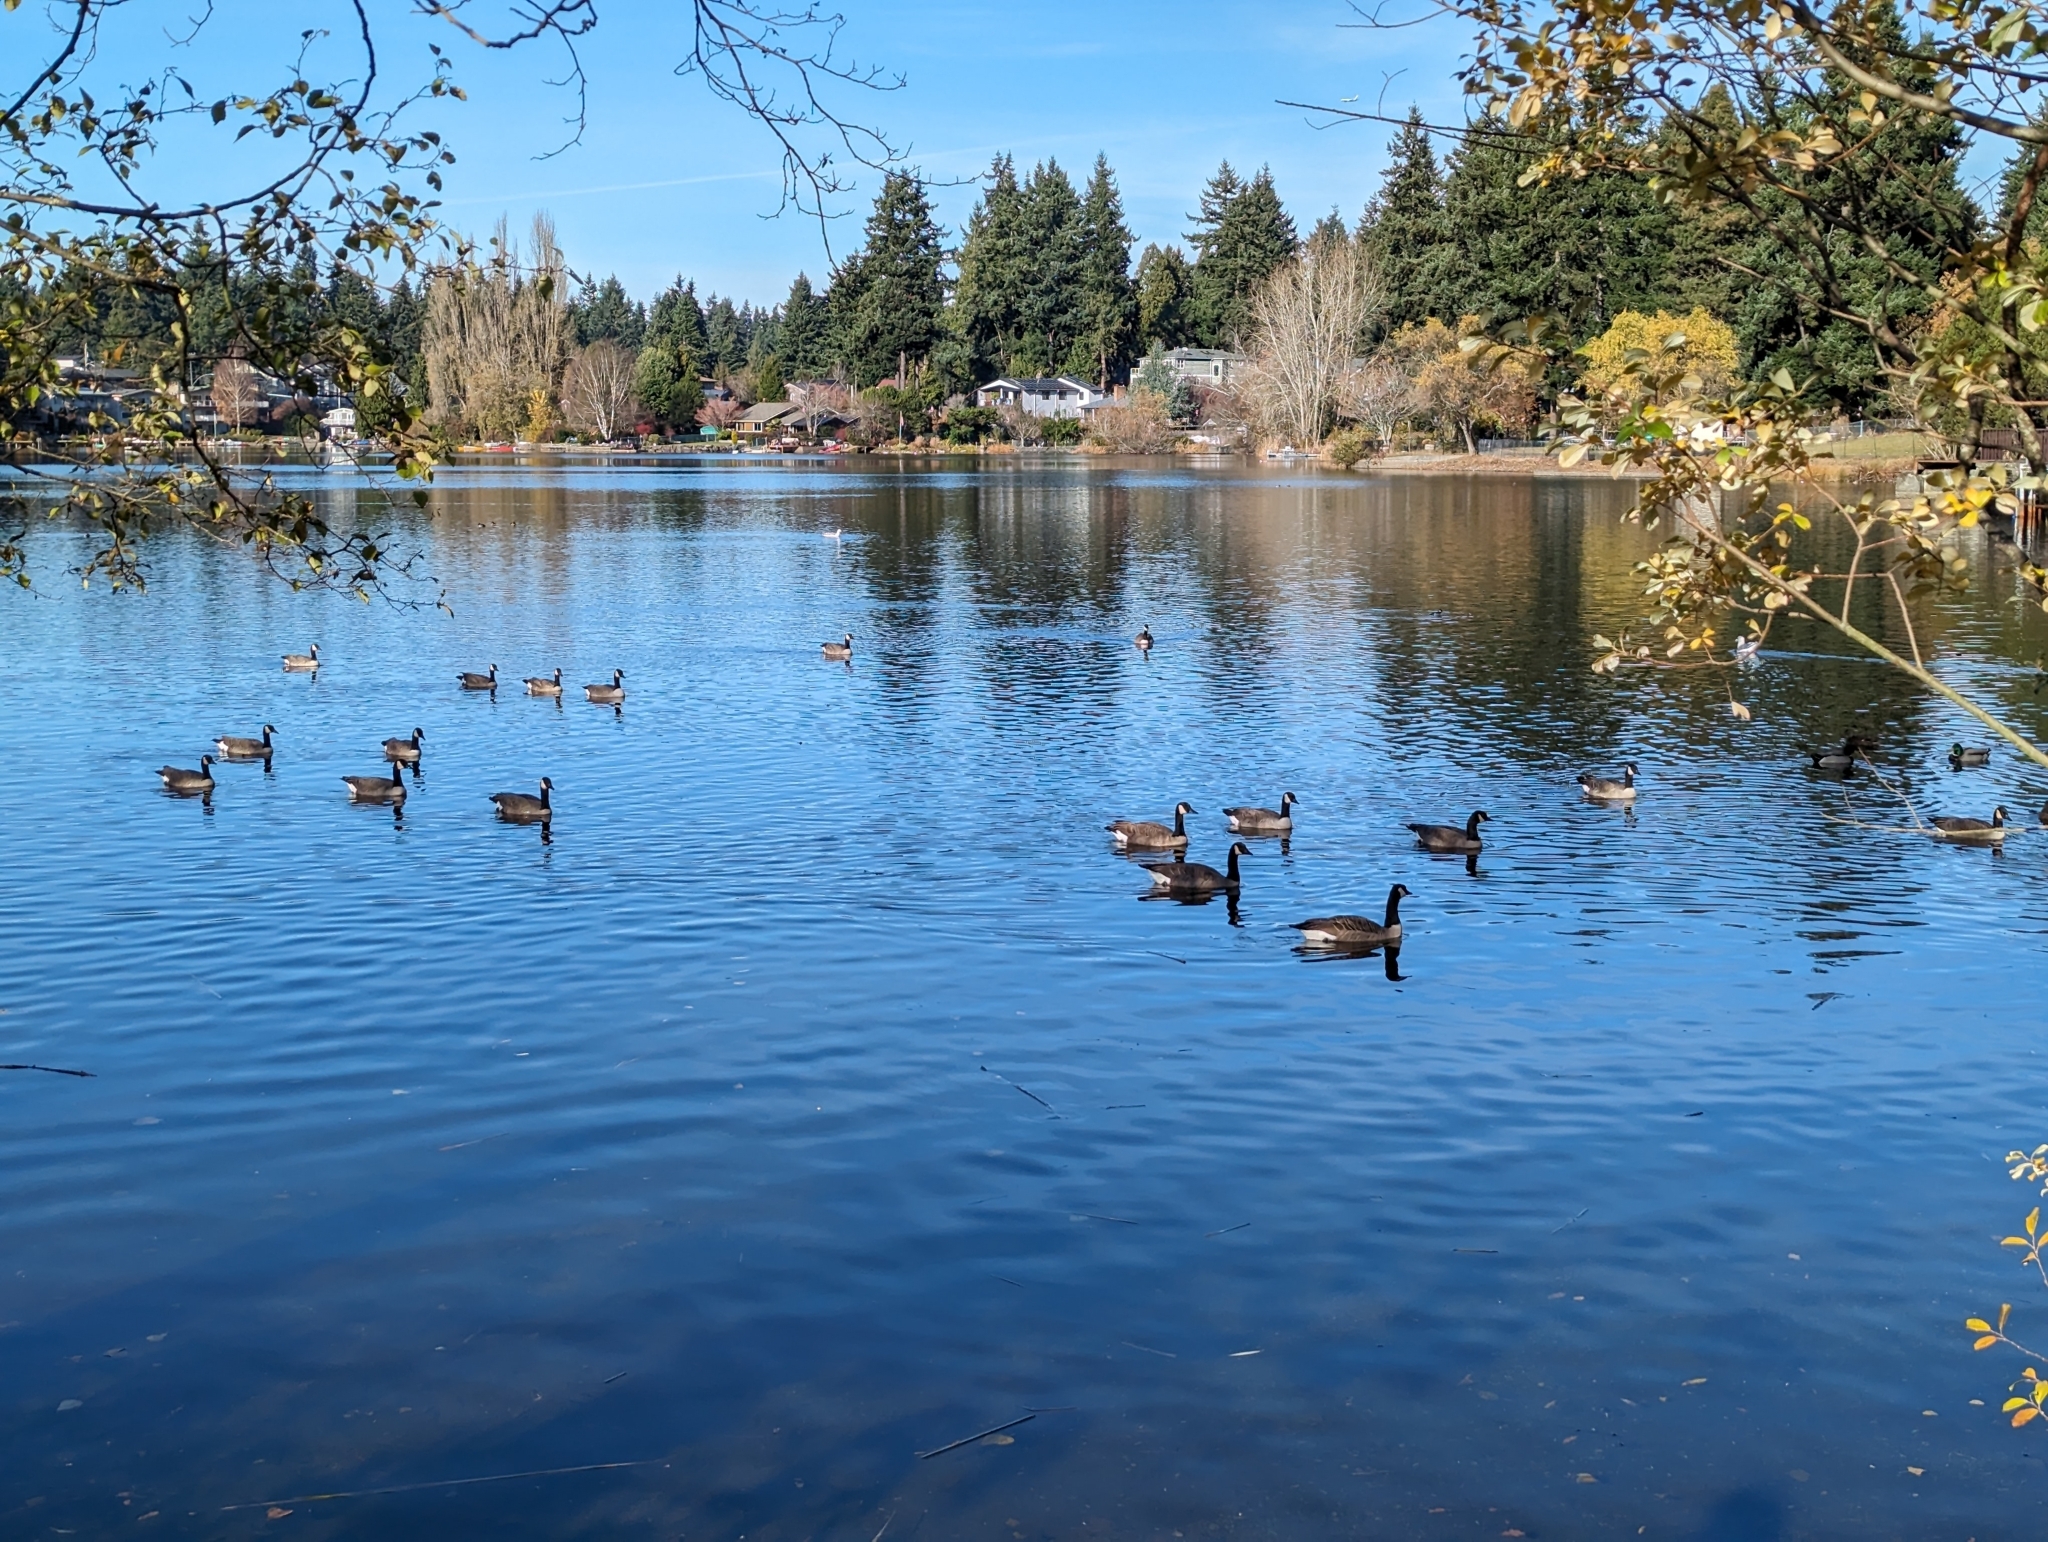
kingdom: Animalia
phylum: Chordata
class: Aves
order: Anseriformes
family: Anatidae
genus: Branta
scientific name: Branta canadensis
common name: Canada goose
